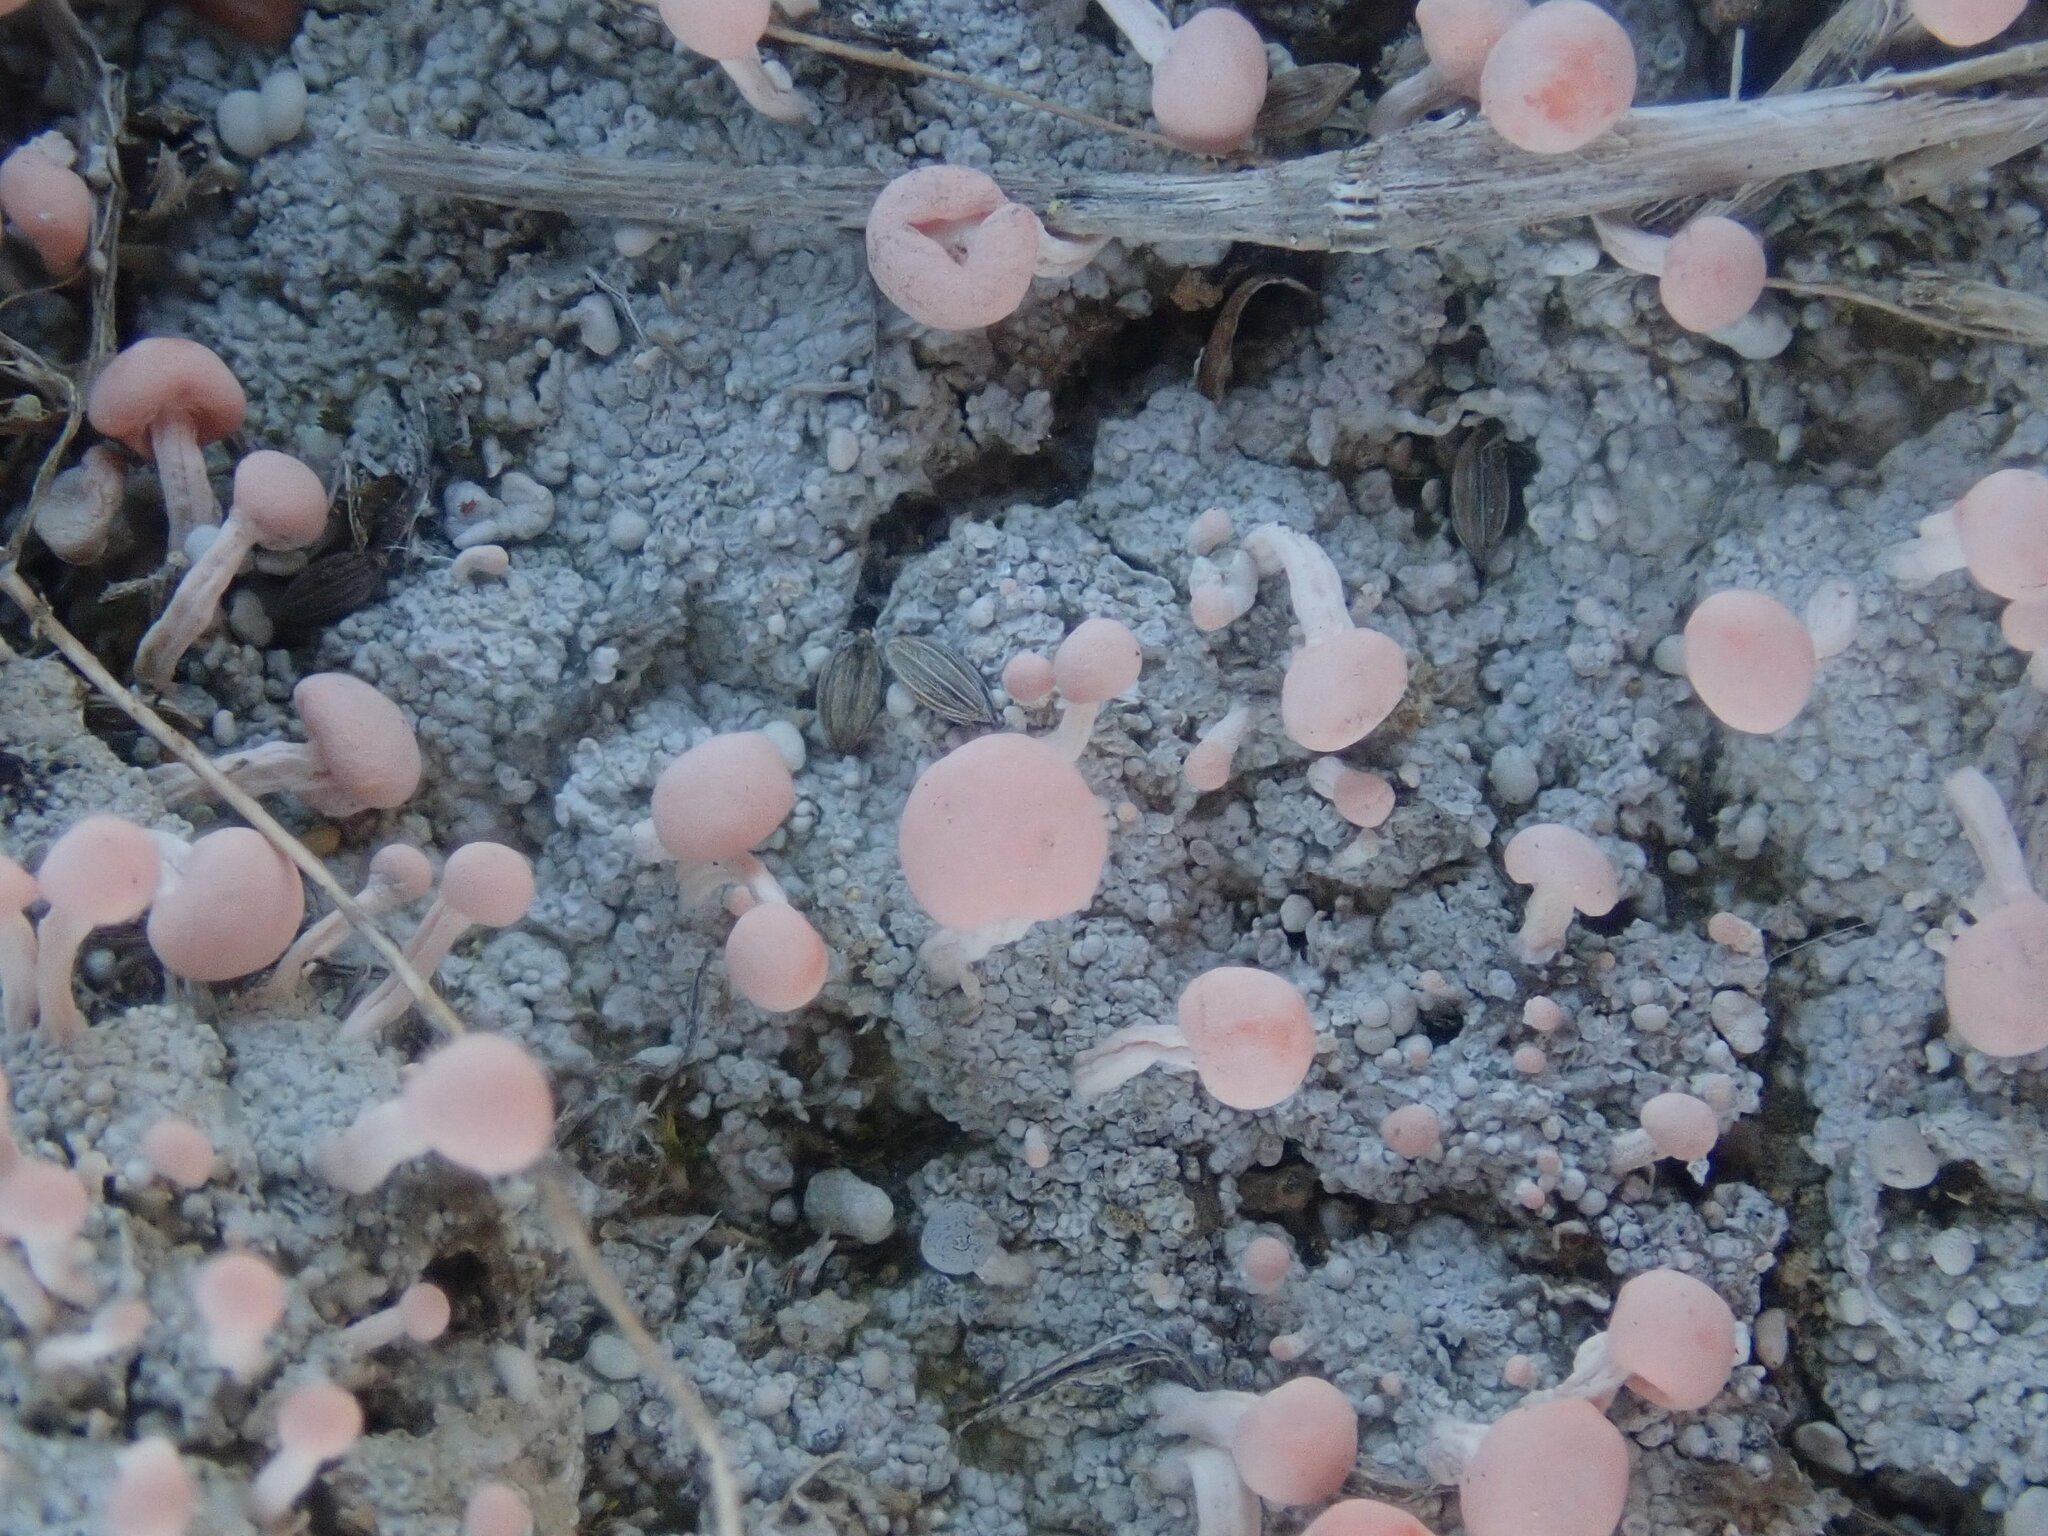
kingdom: Fungi
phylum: Ascomycota
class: Lecanoromycetes
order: Pertusariales
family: Icmadophilaceae
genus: Dibaeis
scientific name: Dibaeis baeomyces
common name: Pink earth lichen
